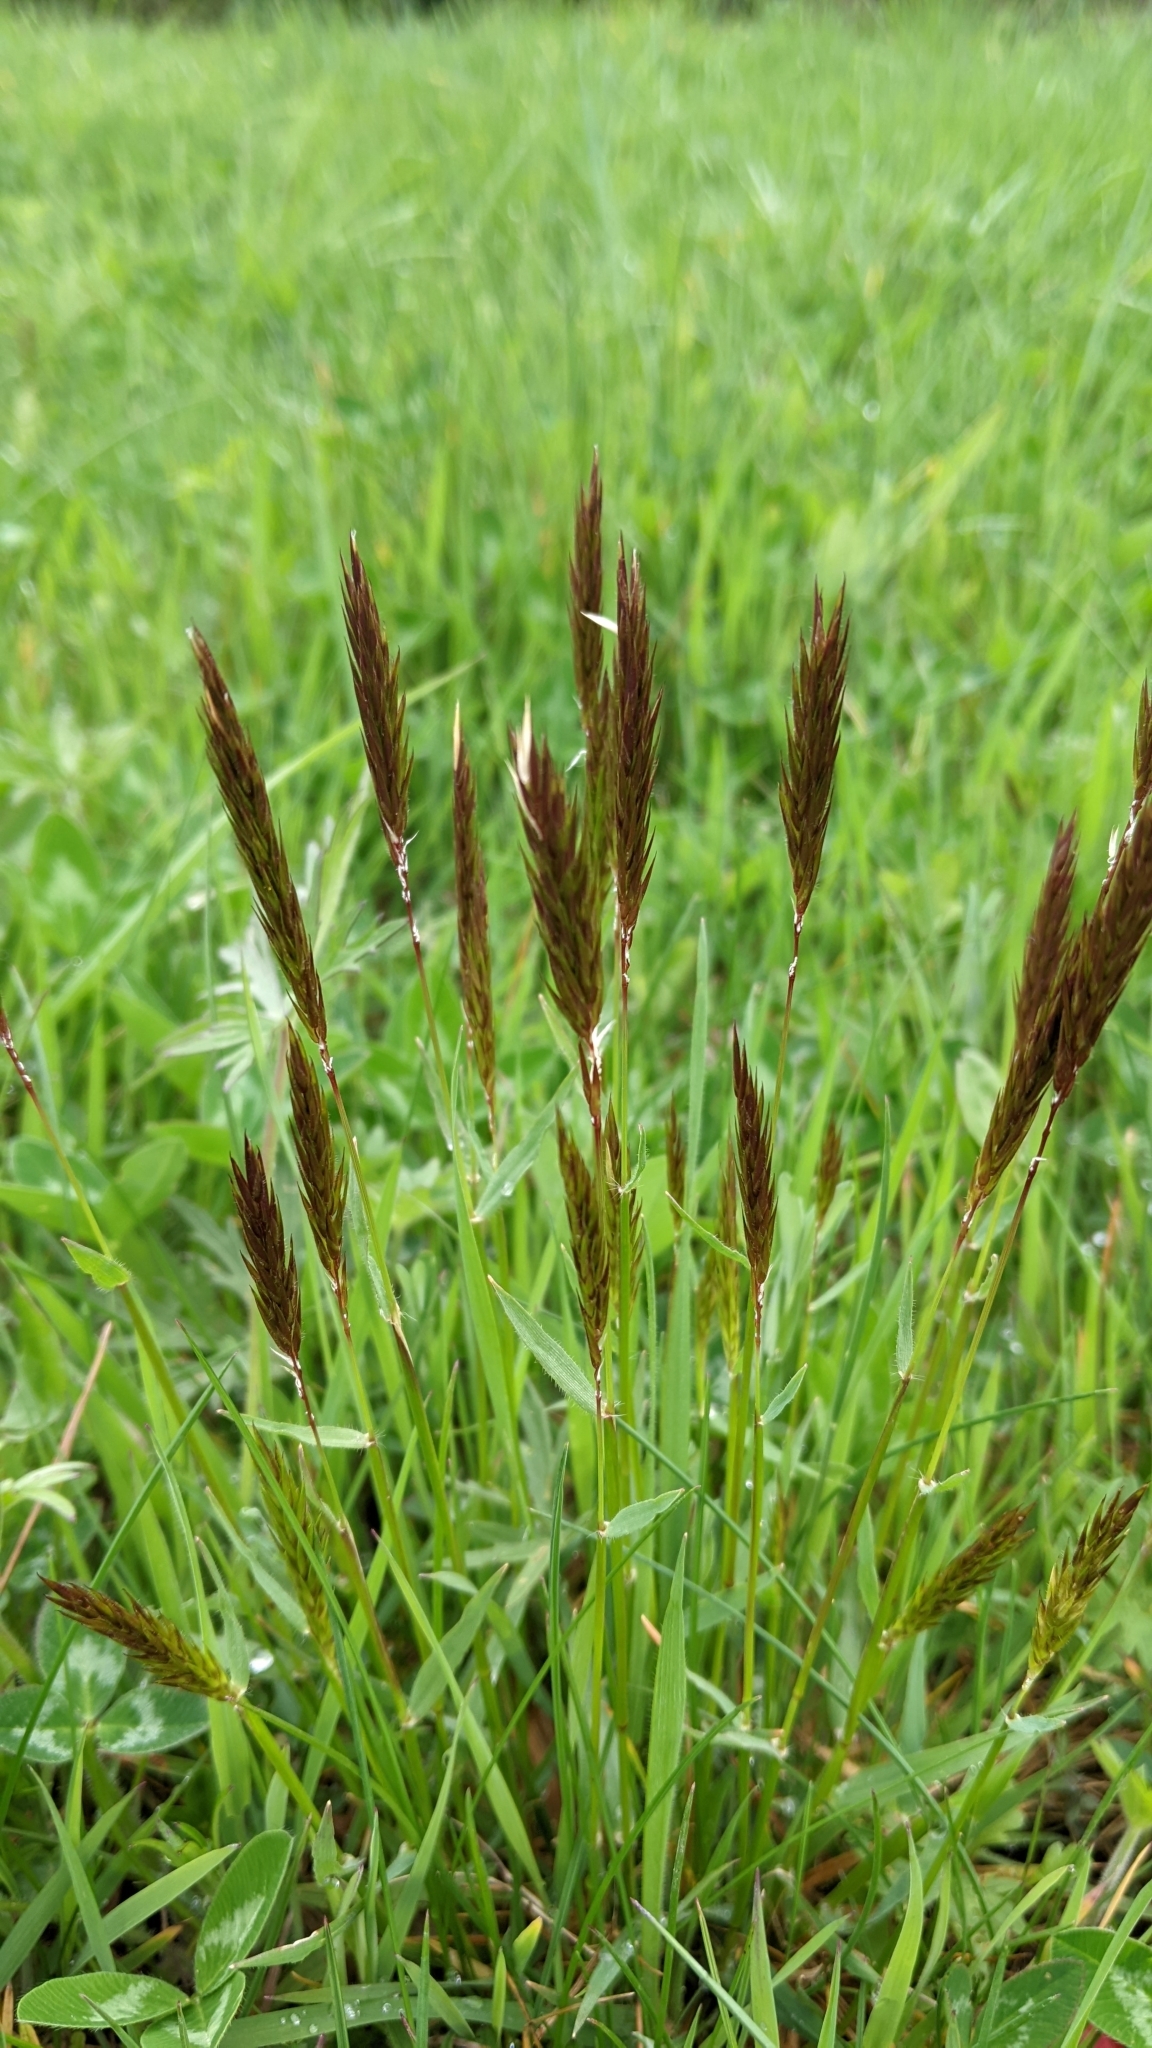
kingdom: Plantae
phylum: Tracheophyta
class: Liliopsida
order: Poales
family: Poaceae
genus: Anthoxanthum
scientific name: Anthoxanthum odoratum
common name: Sweet vernalgrass
